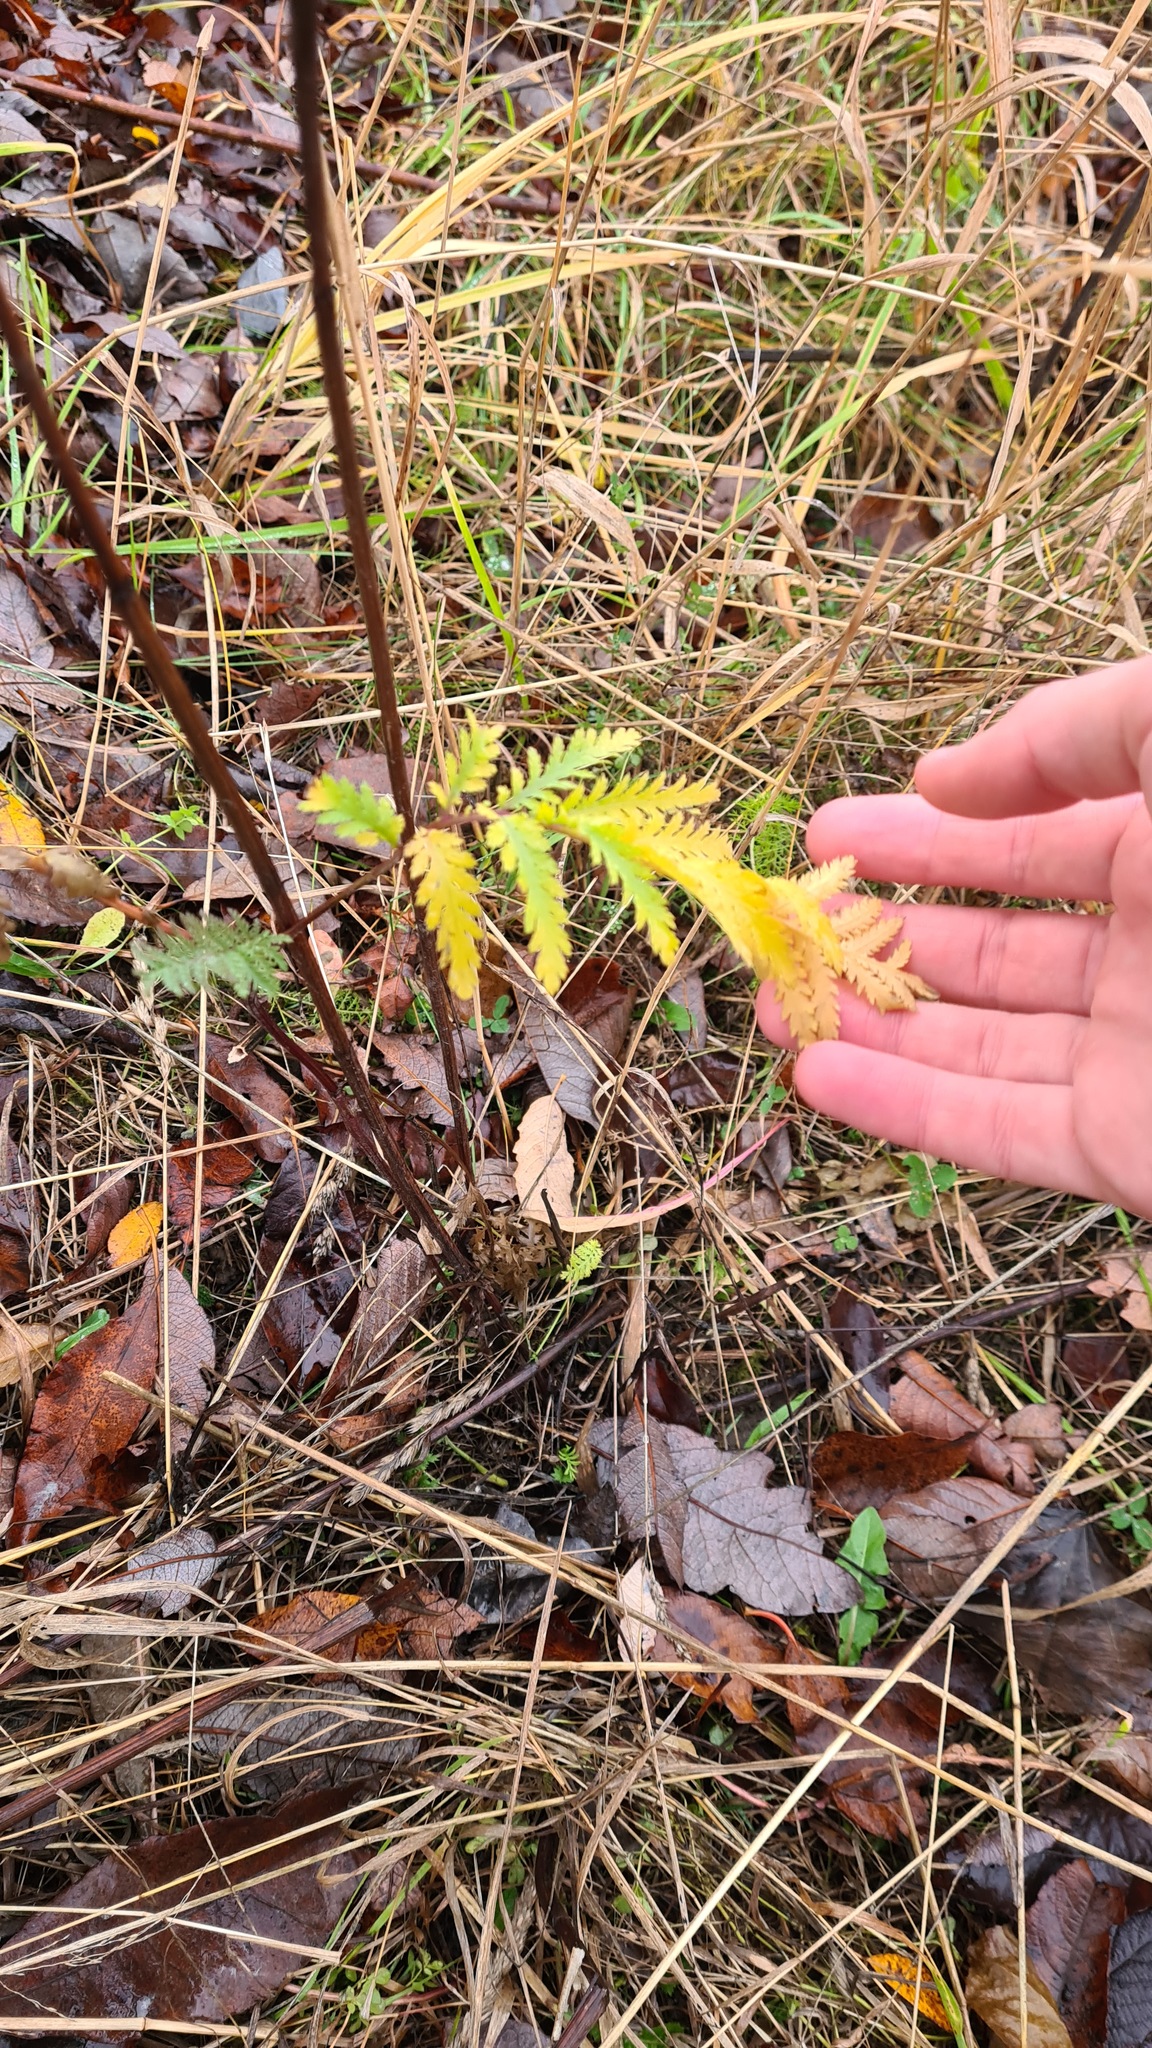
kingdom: Plantae
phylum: Tracheophyta
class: Magnoliopsida
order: Asterales
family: Asteraceae
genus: Tanacetum
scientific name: Tanacetum vulgare
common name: Common tansy
